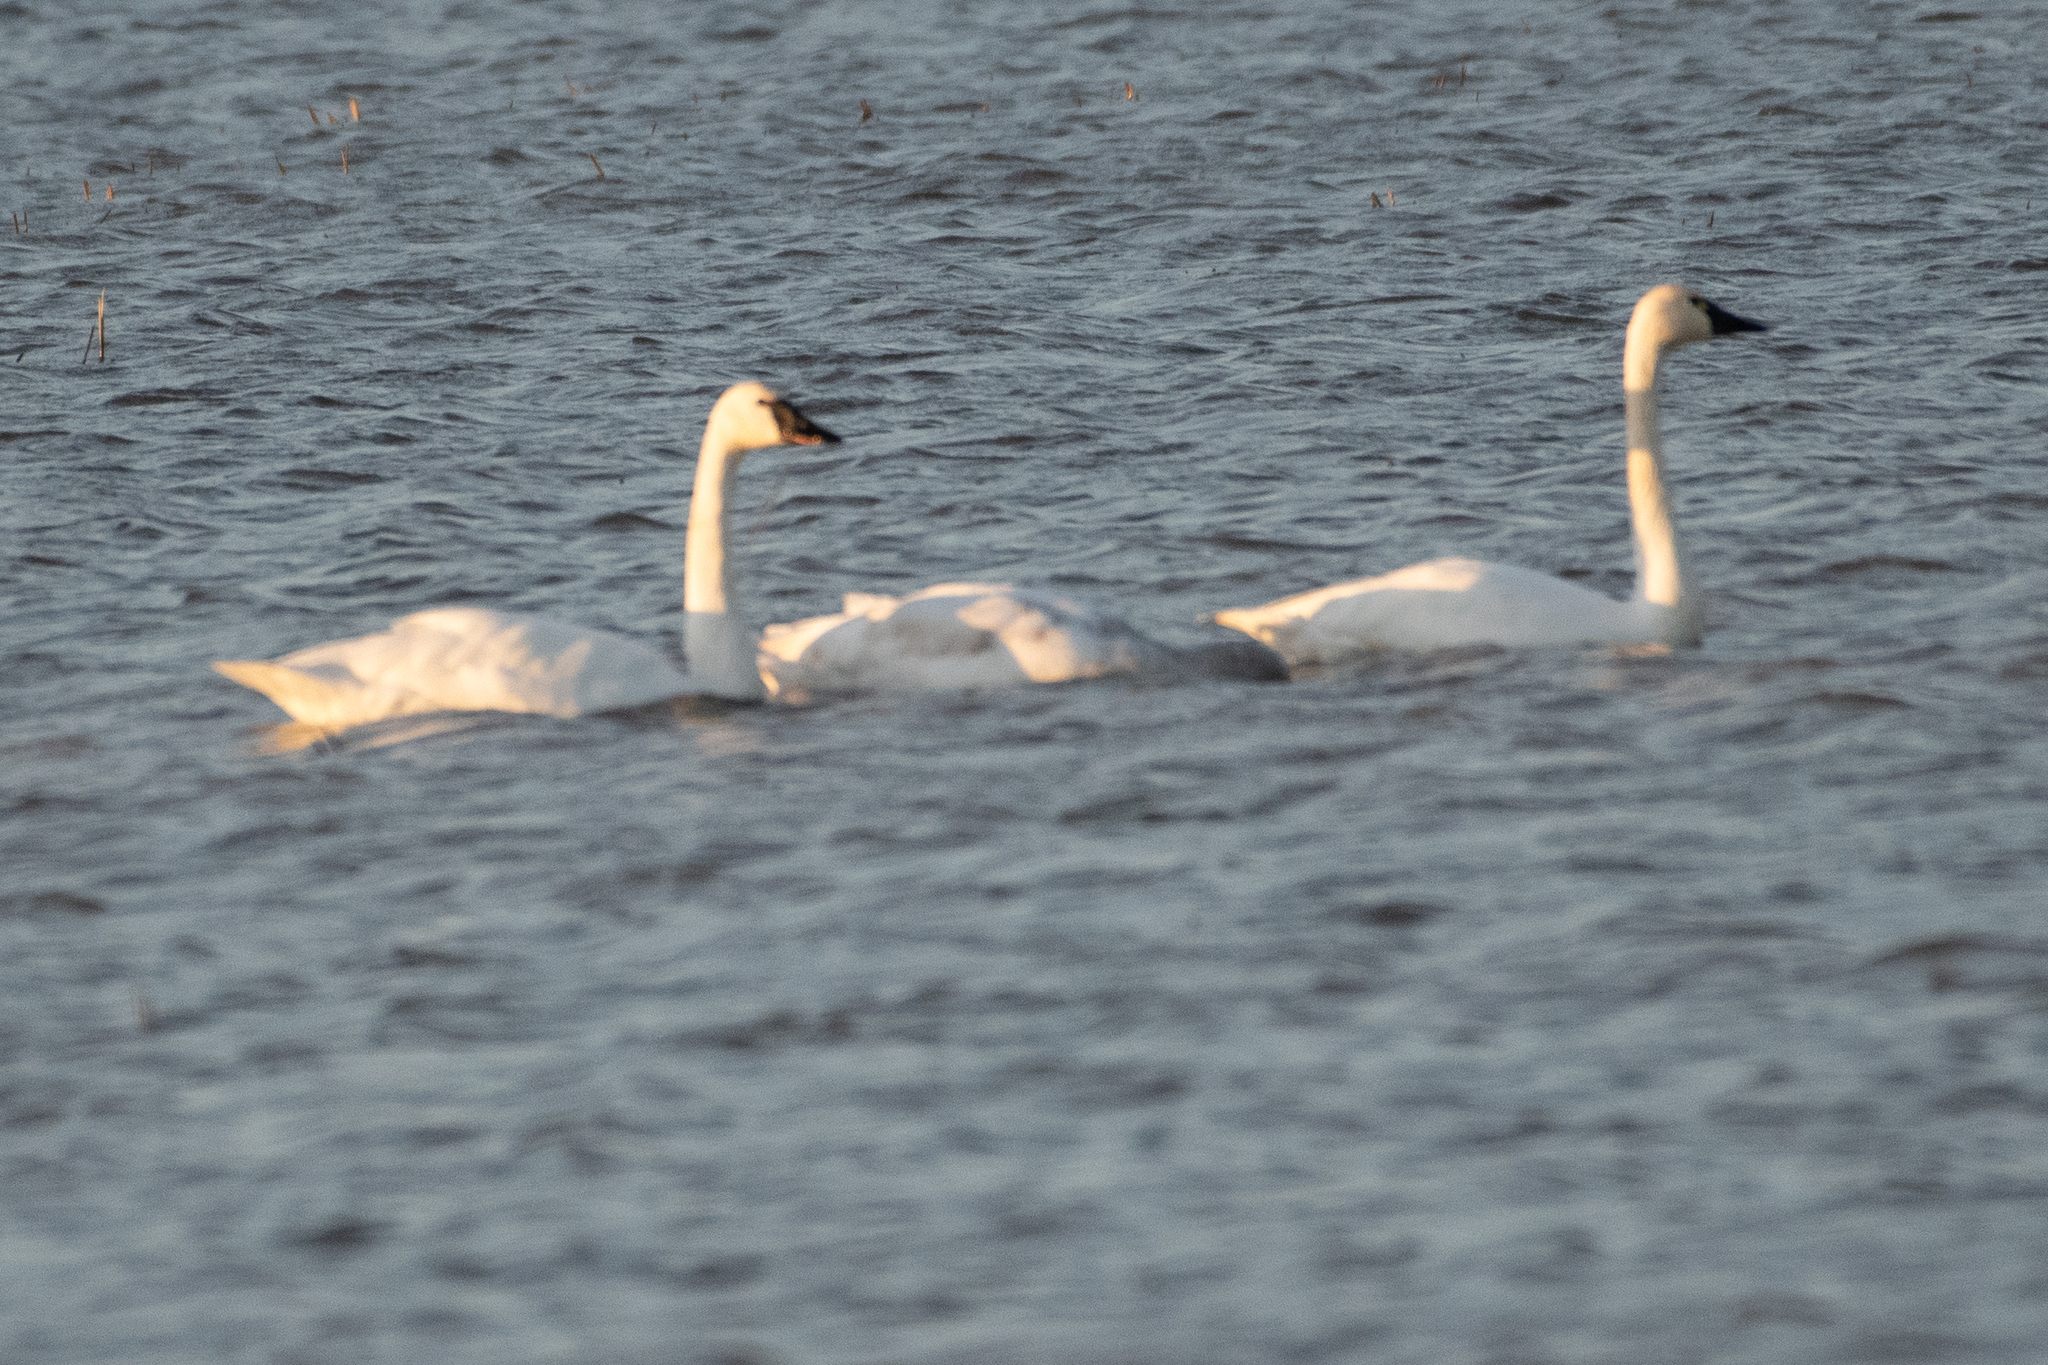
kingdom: Animalia
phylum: Chordata
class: Aves
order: Anseriformes
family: Anatidae
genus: Cygnus
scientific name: Cygnus columbianus
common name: Tundra swan
